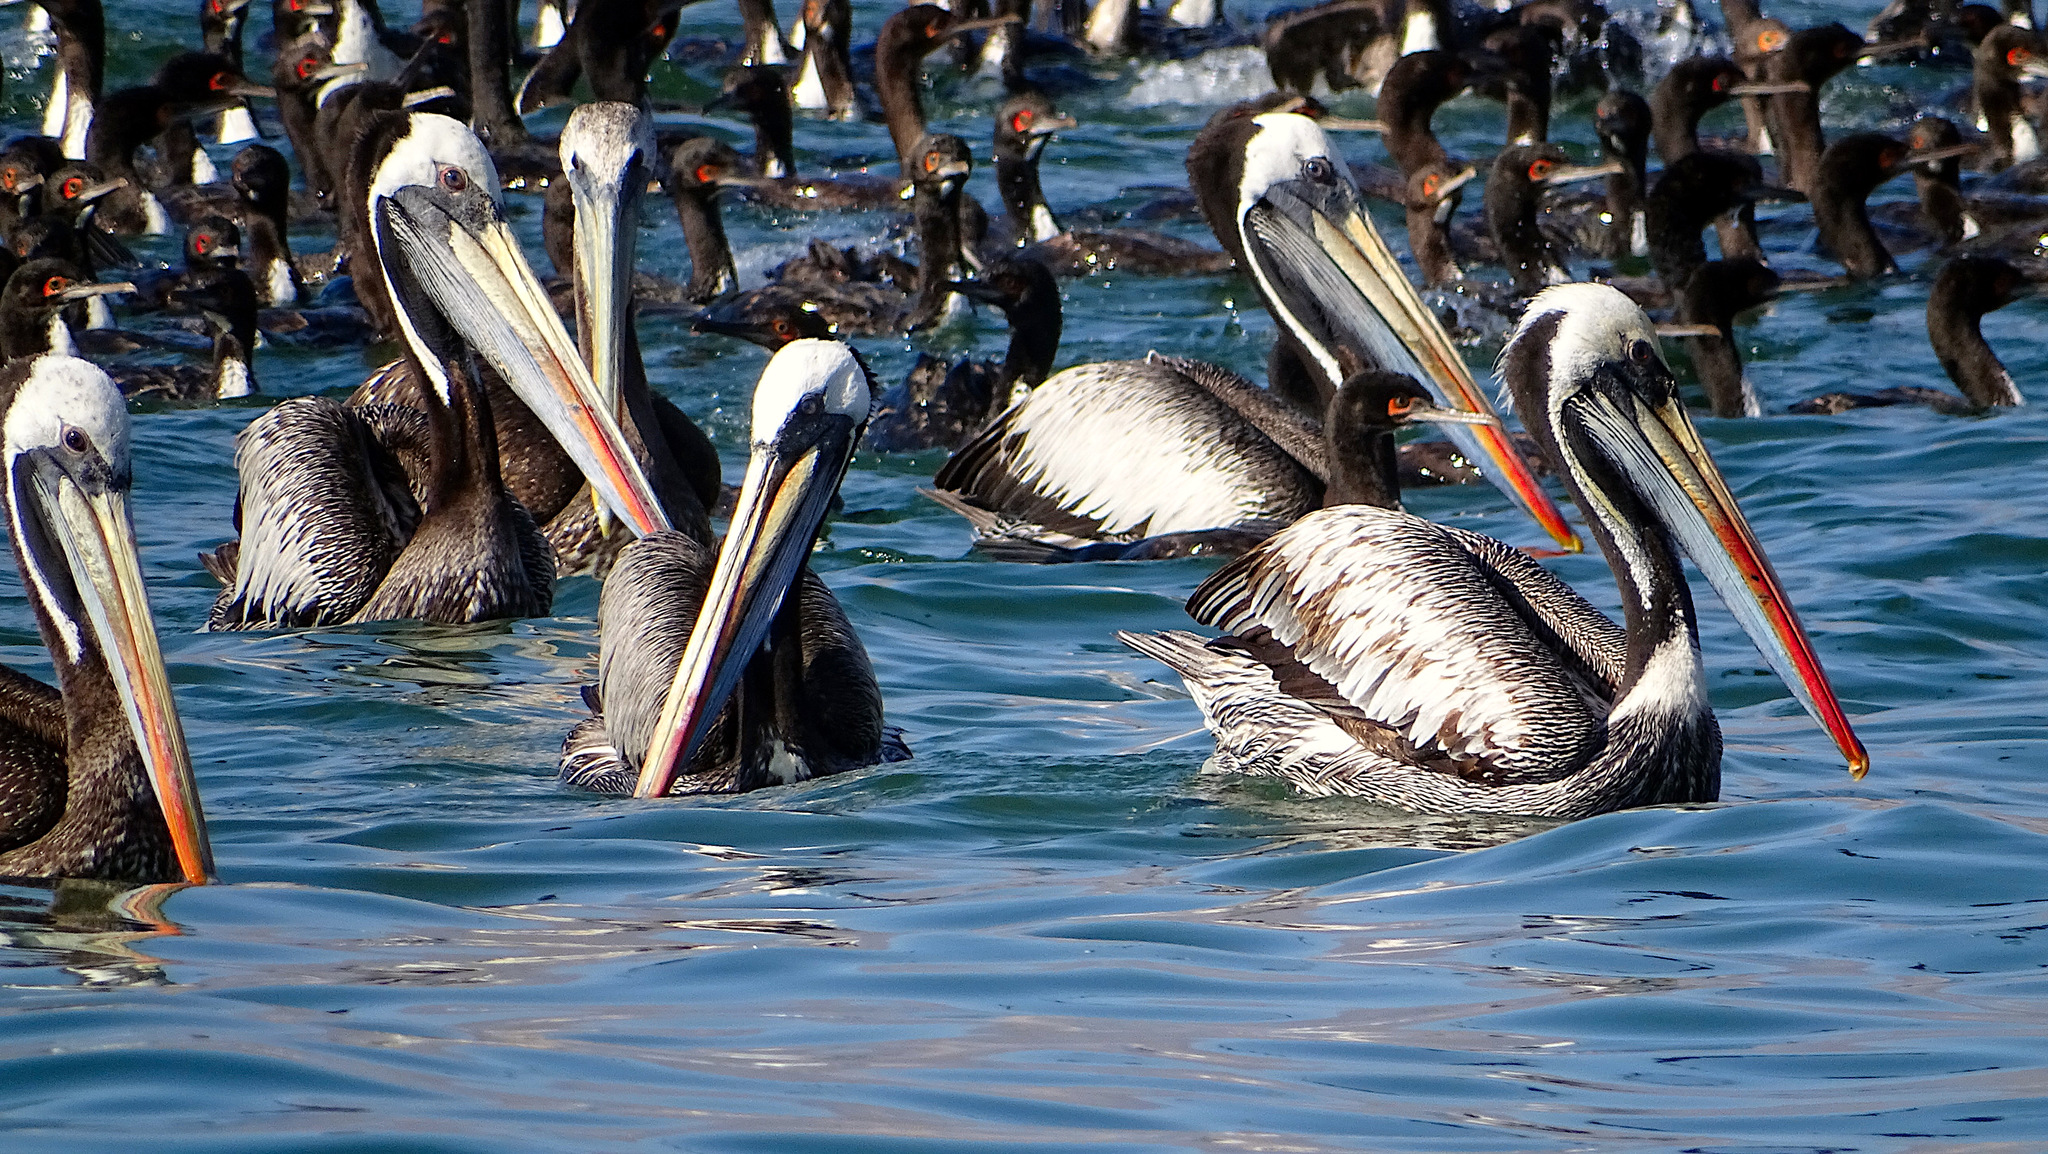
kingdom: Animalia
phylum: Chordata
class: Aves
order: Pelecaniformes
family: Pelecanidae
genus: Pelecanus
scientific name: Pelecanus thagus
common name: Peruvian pelican
